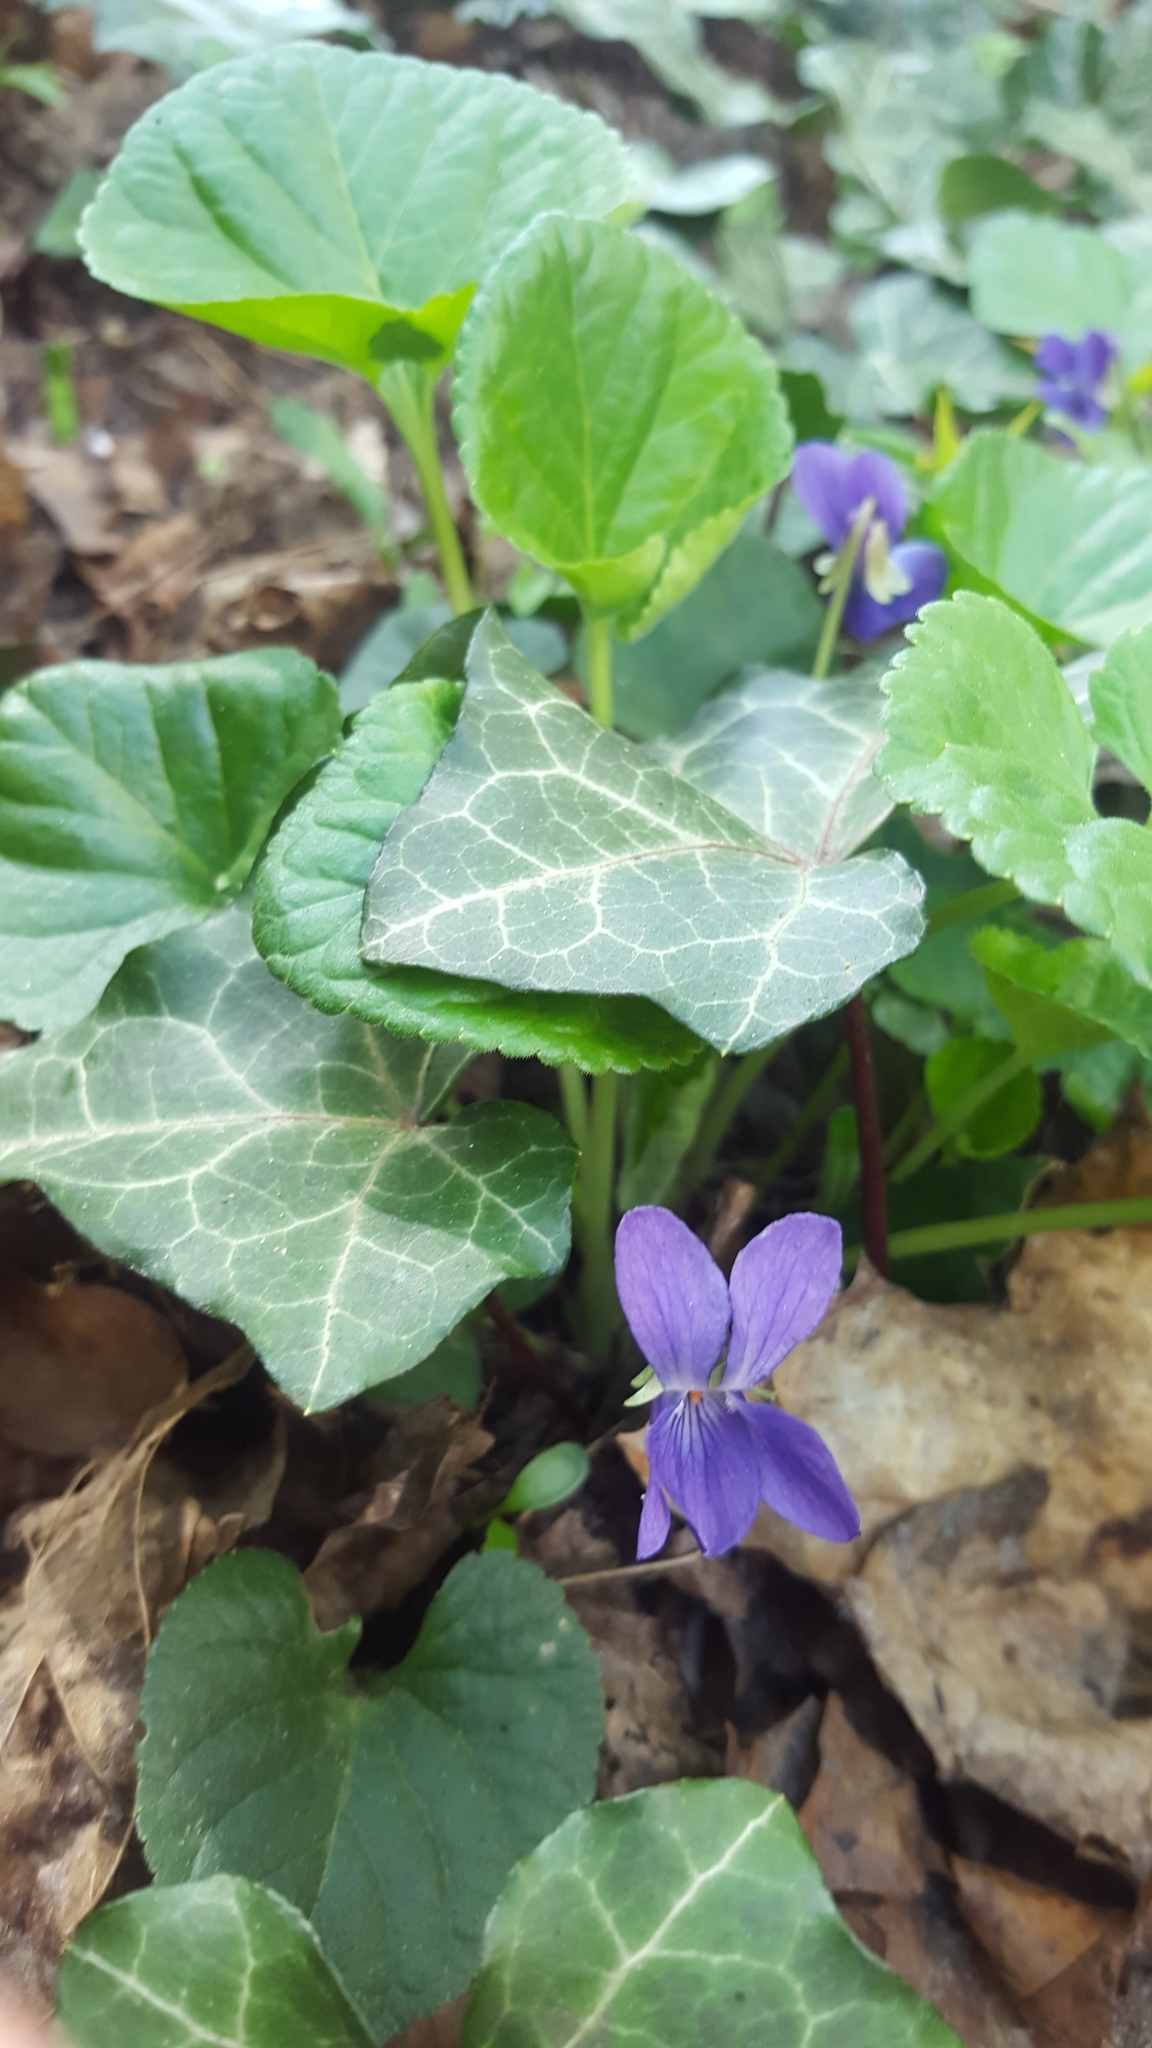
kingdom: Plantae
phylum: Tracheophyta
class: Magnoliopsida
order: Apiales
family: Araliaceae
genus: Hedera
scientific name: Hedera helix
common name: Ivy
